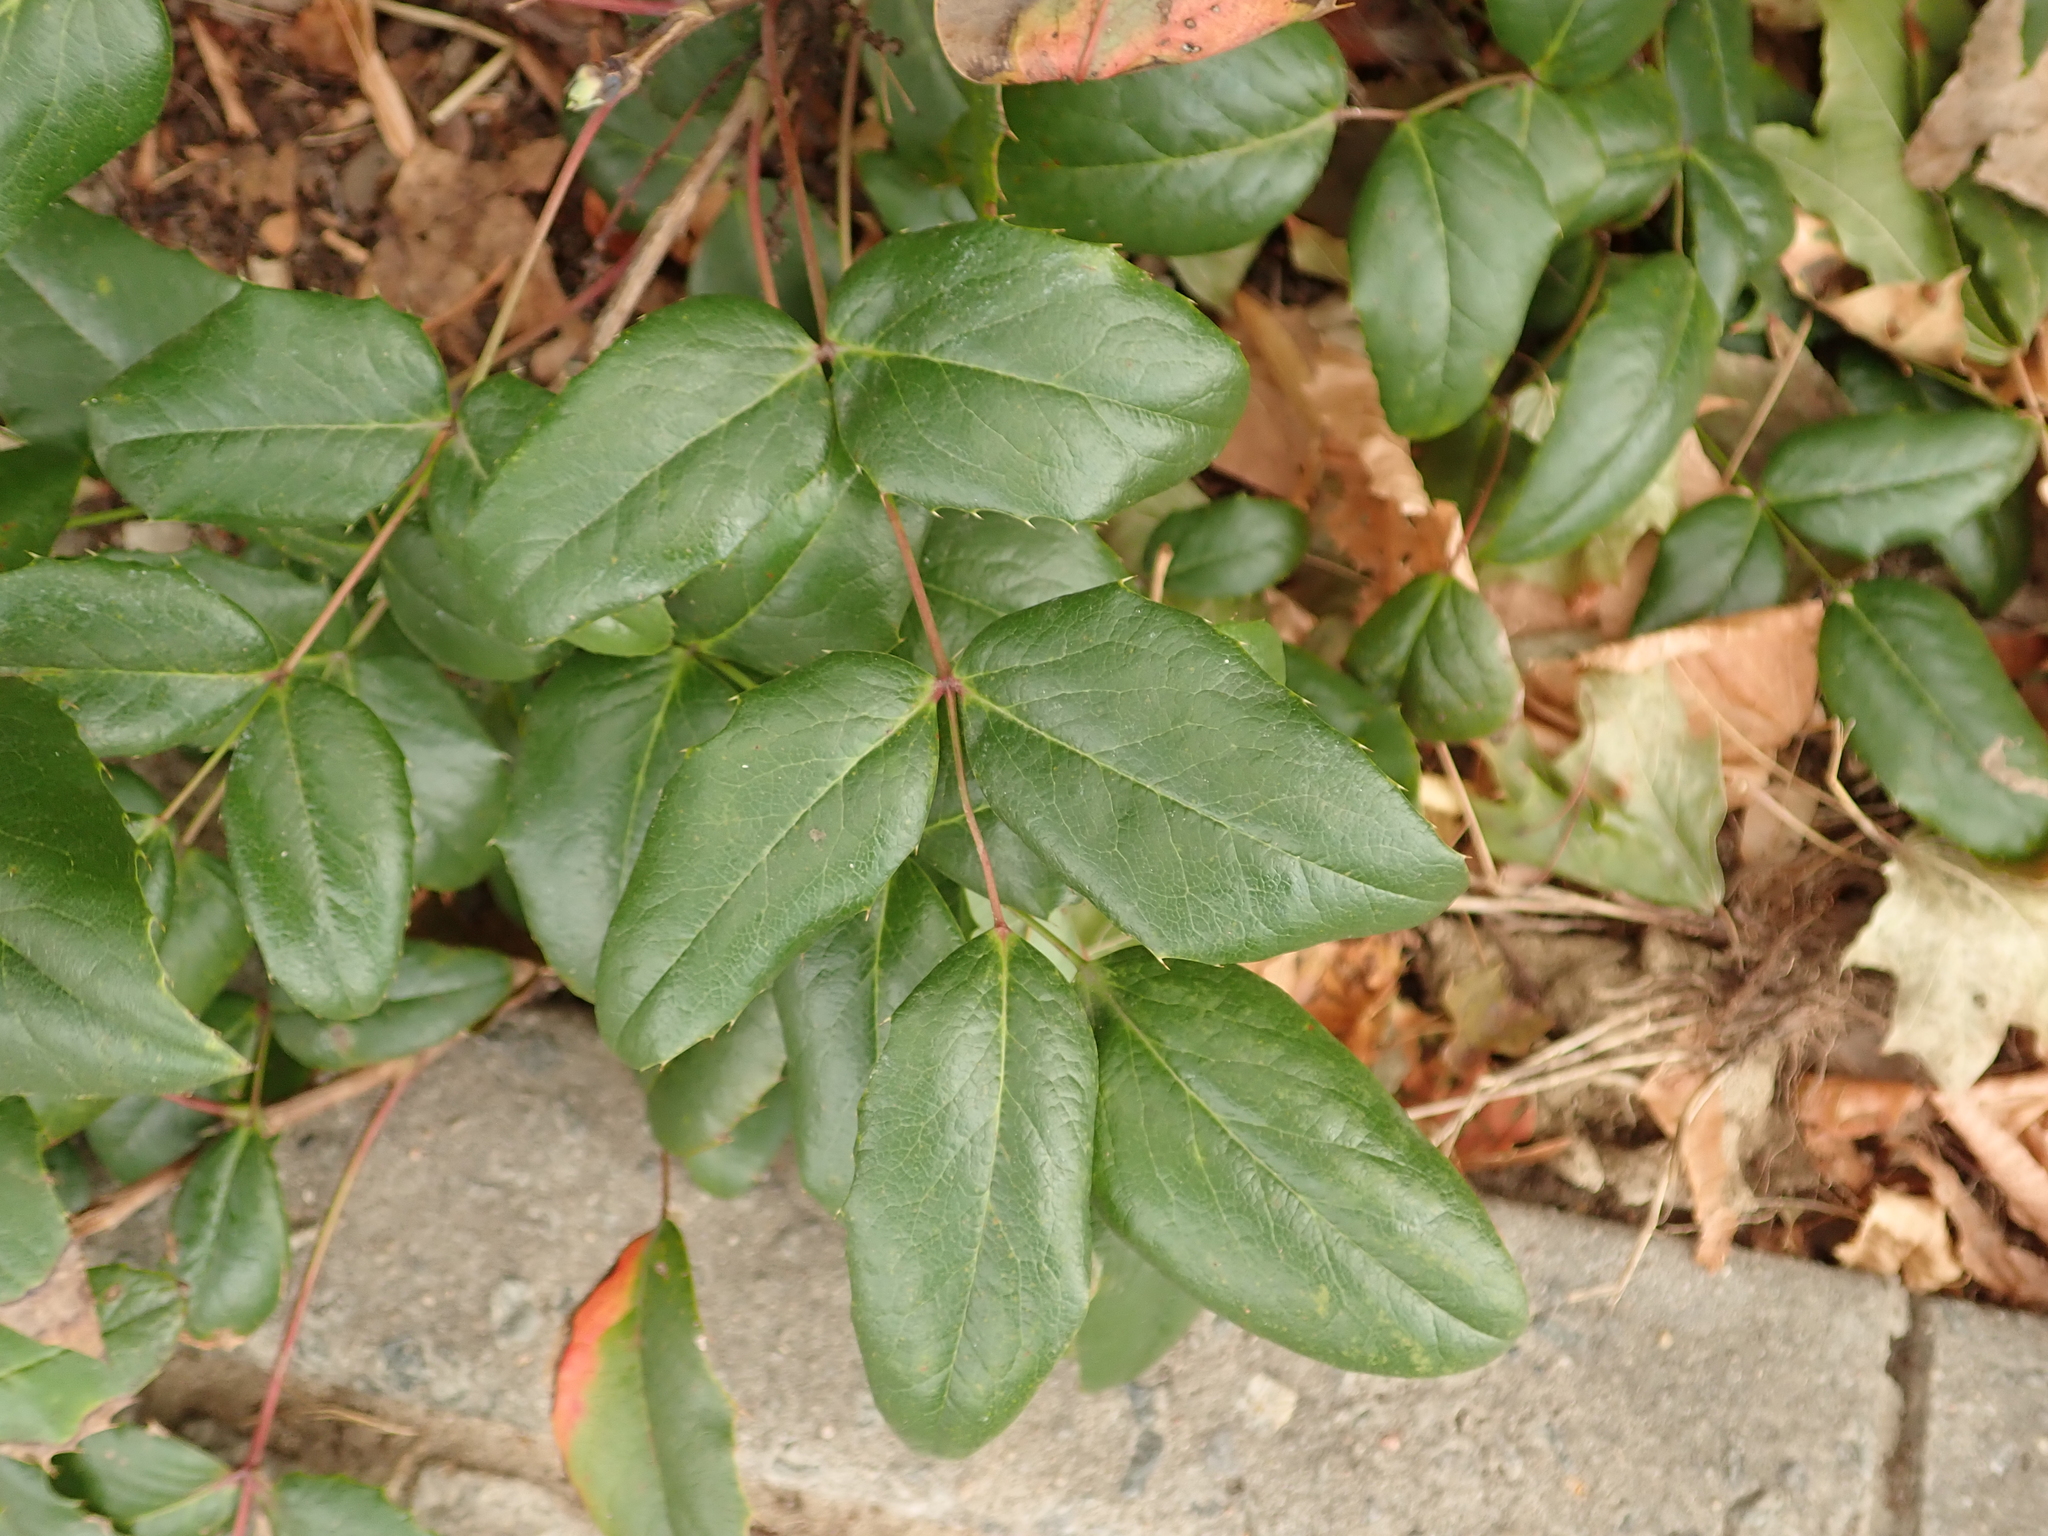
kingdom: Plantae
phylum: Tracheophyta
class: Magnoliopsida
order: Ranunculales
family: Berberidaceae
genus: Mahonia
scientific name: Mahonia aquifolium
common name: Oregon-grape
